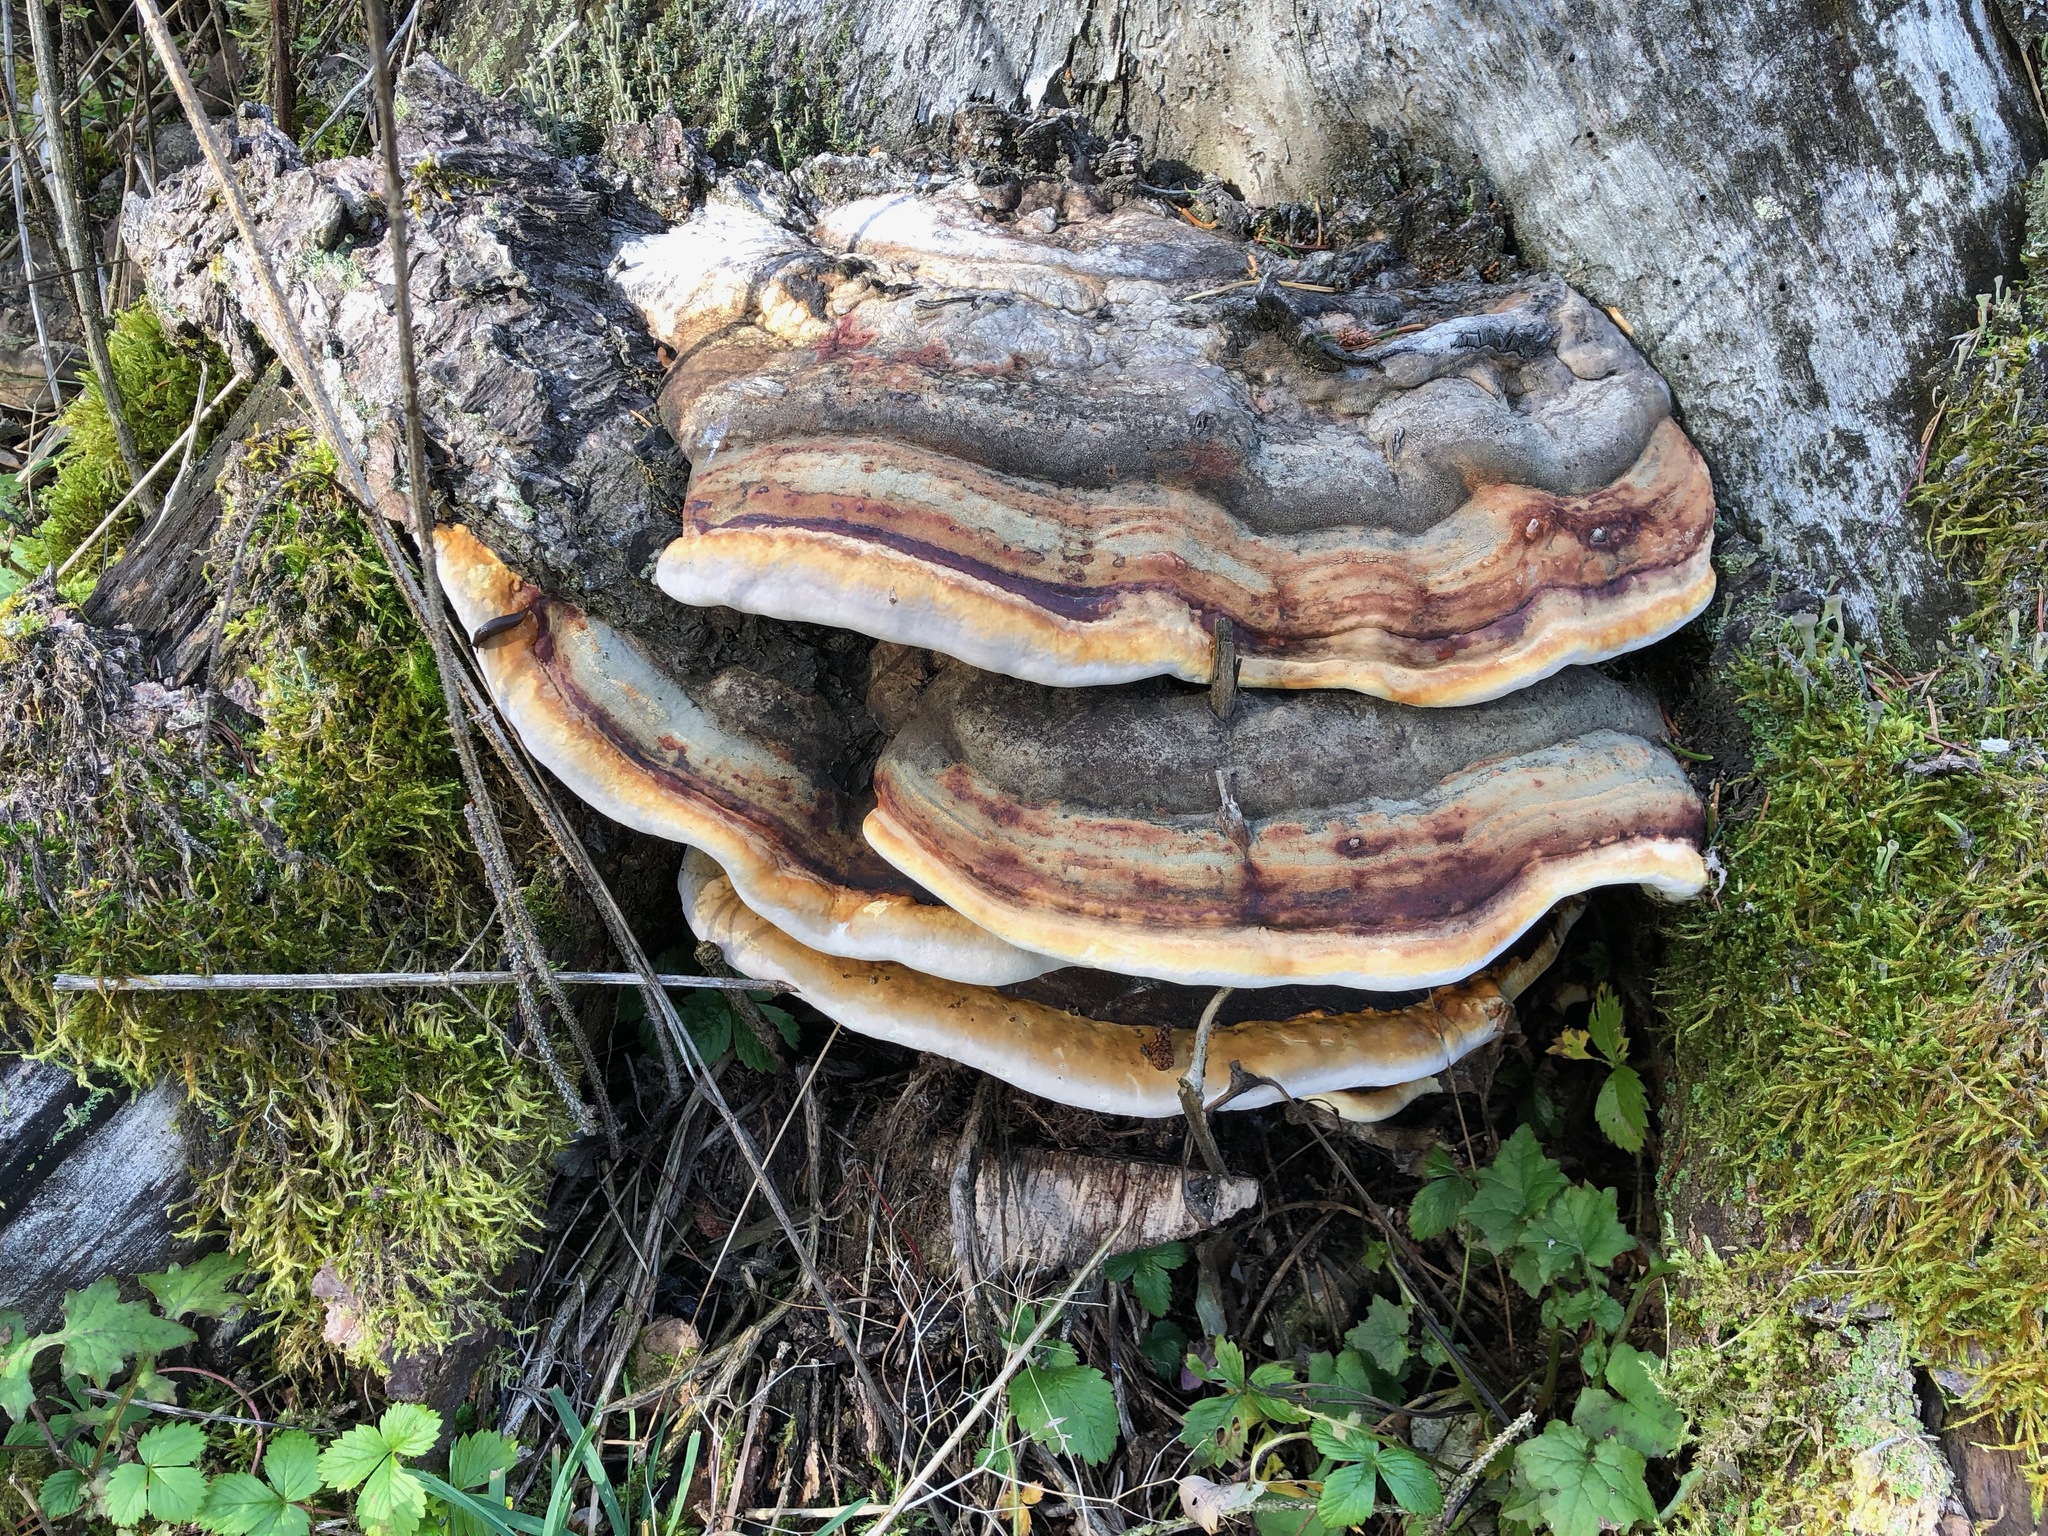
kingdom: Fungi
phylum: Basidiomycota
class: Agaricomycetes
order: Polyporales
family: Fomitopsidaceae
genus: Fomitopsis
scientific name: Fomitopsis pinicola
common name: Red-belted bracket
